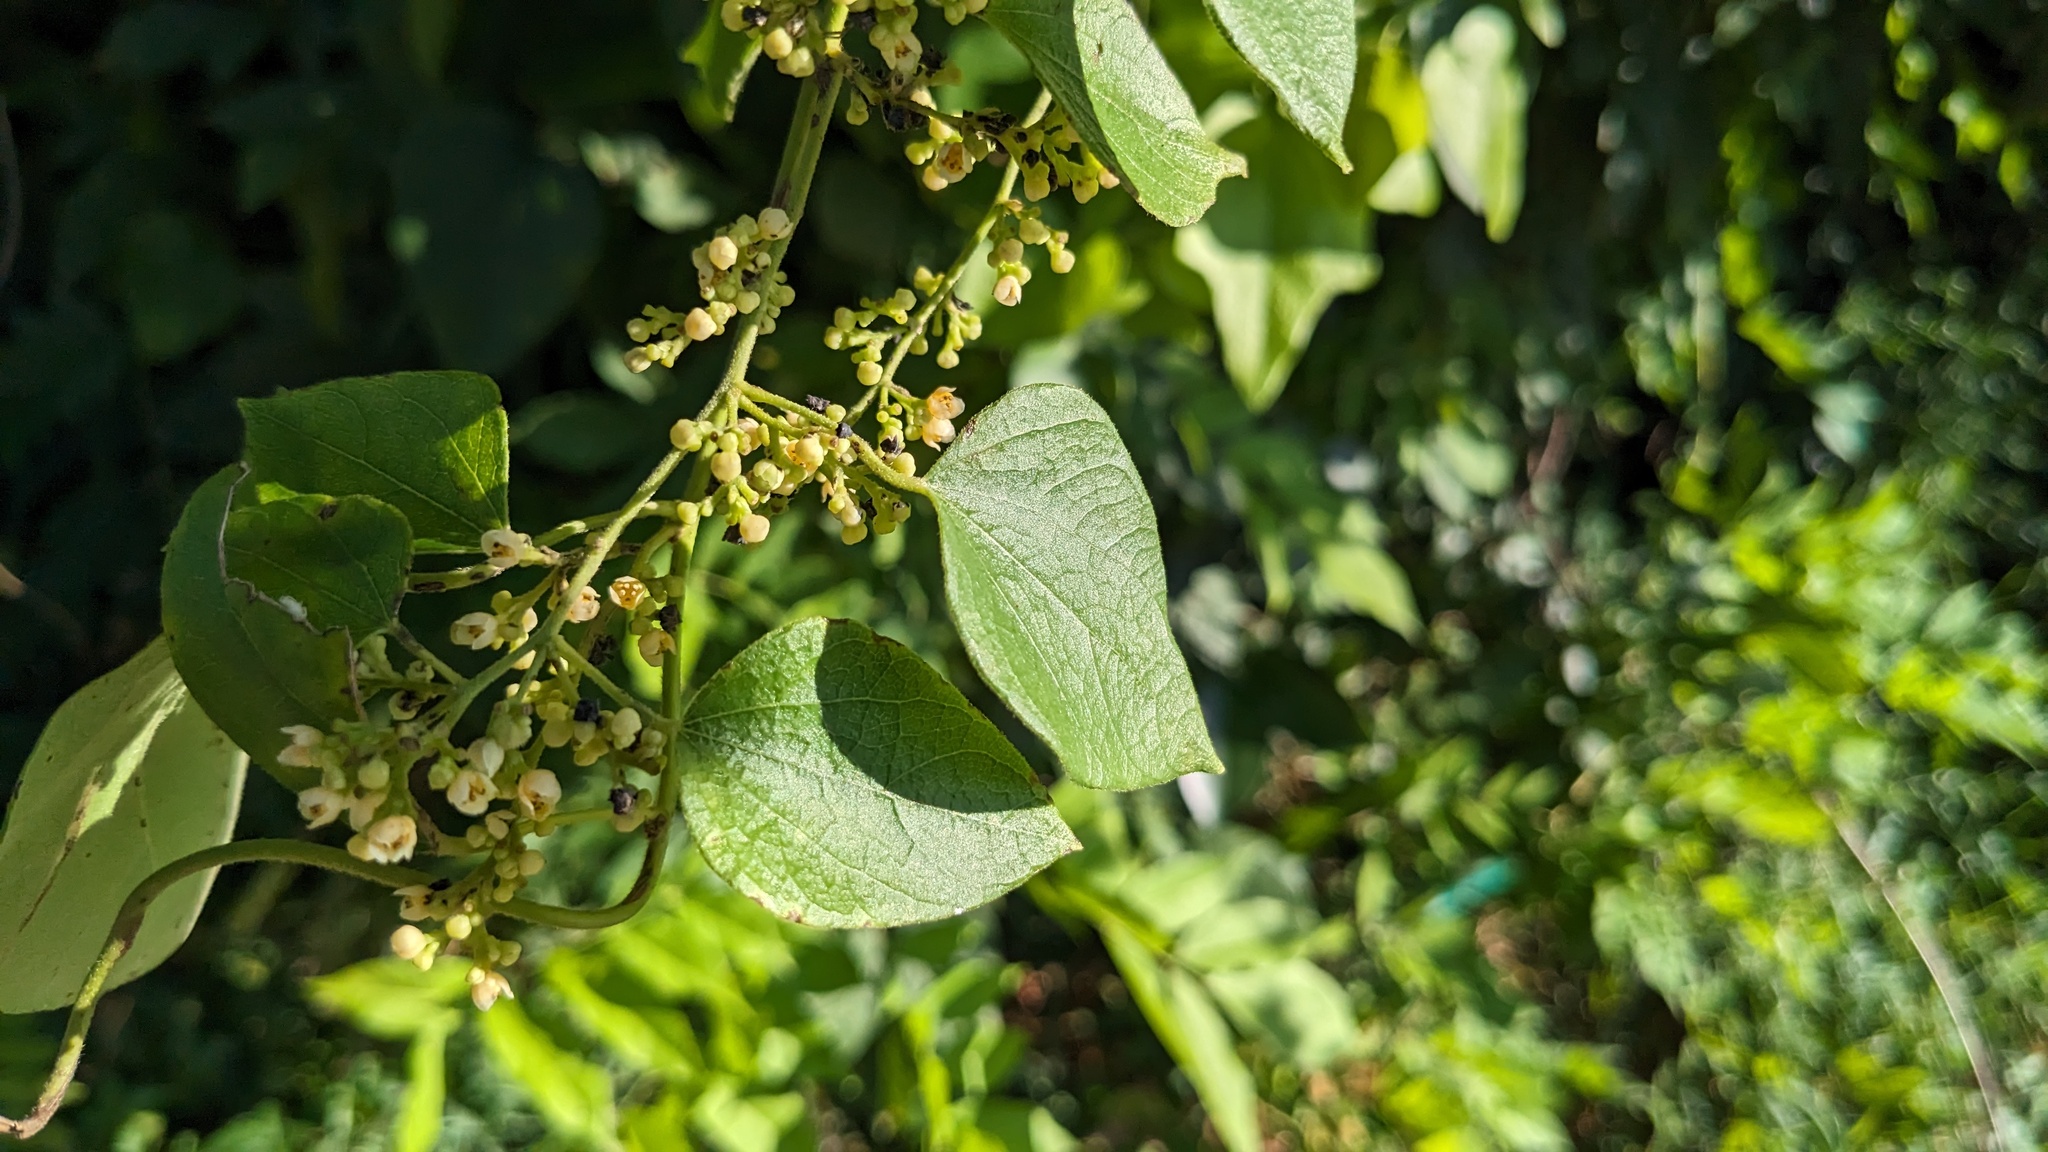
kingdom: Plantae
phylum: Tracheophyta
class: Magnoliopsida
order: Ranunculales
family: Menispermaceae
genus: Cocculus
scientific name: Cocculus carolinus
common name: Carolina moonseed
